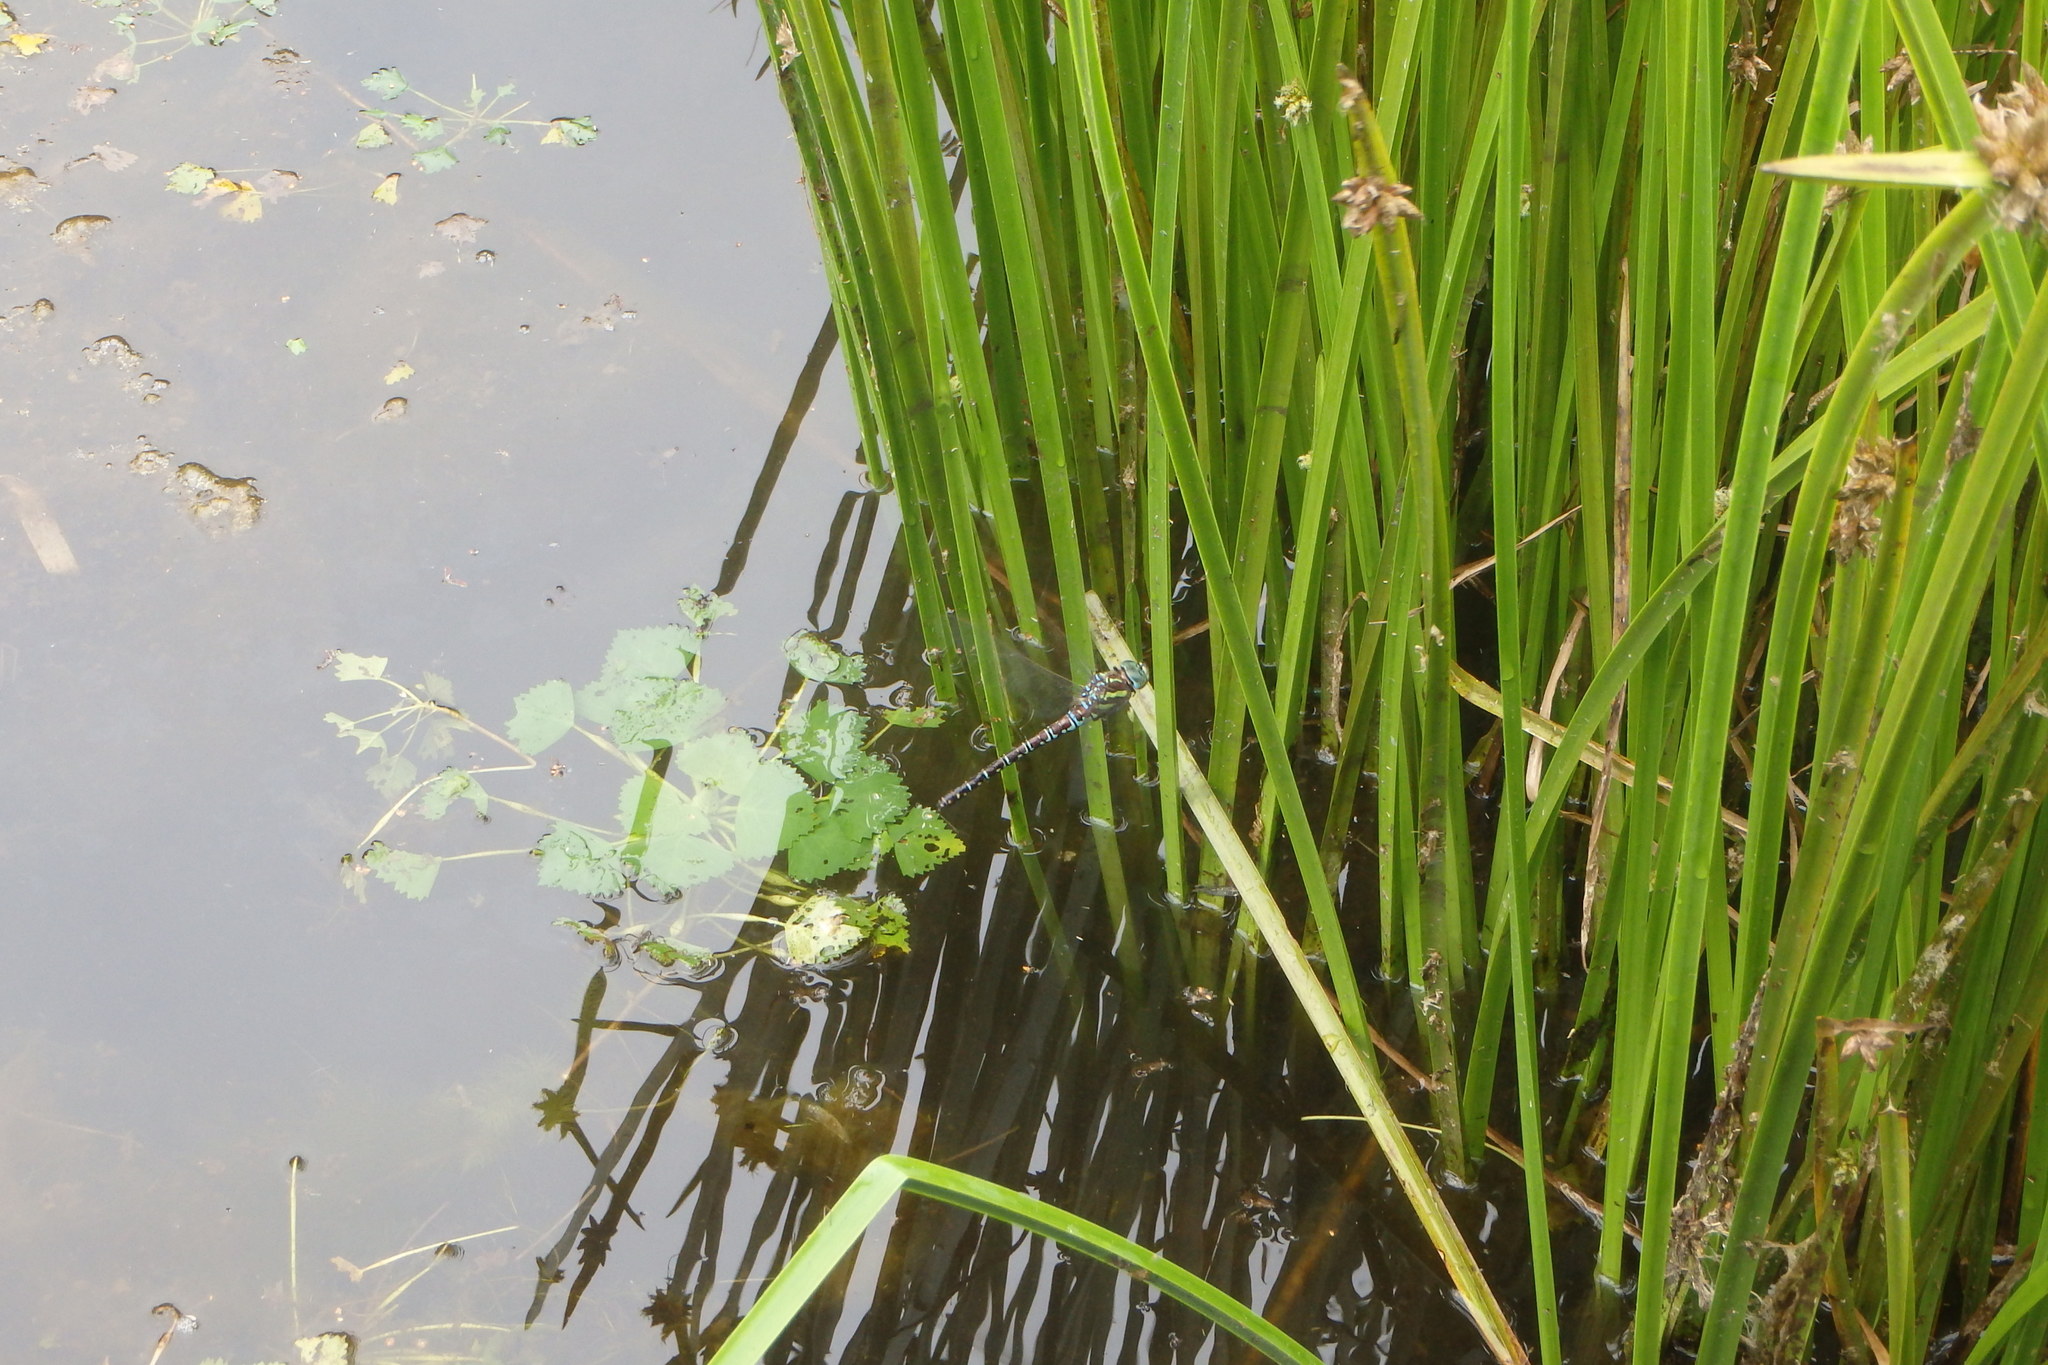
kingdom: Animalia
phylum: Arthropoda
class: Insecta
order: Odonata
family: Aeshnidae
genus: Aeshna
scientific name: Aeshna crenata
